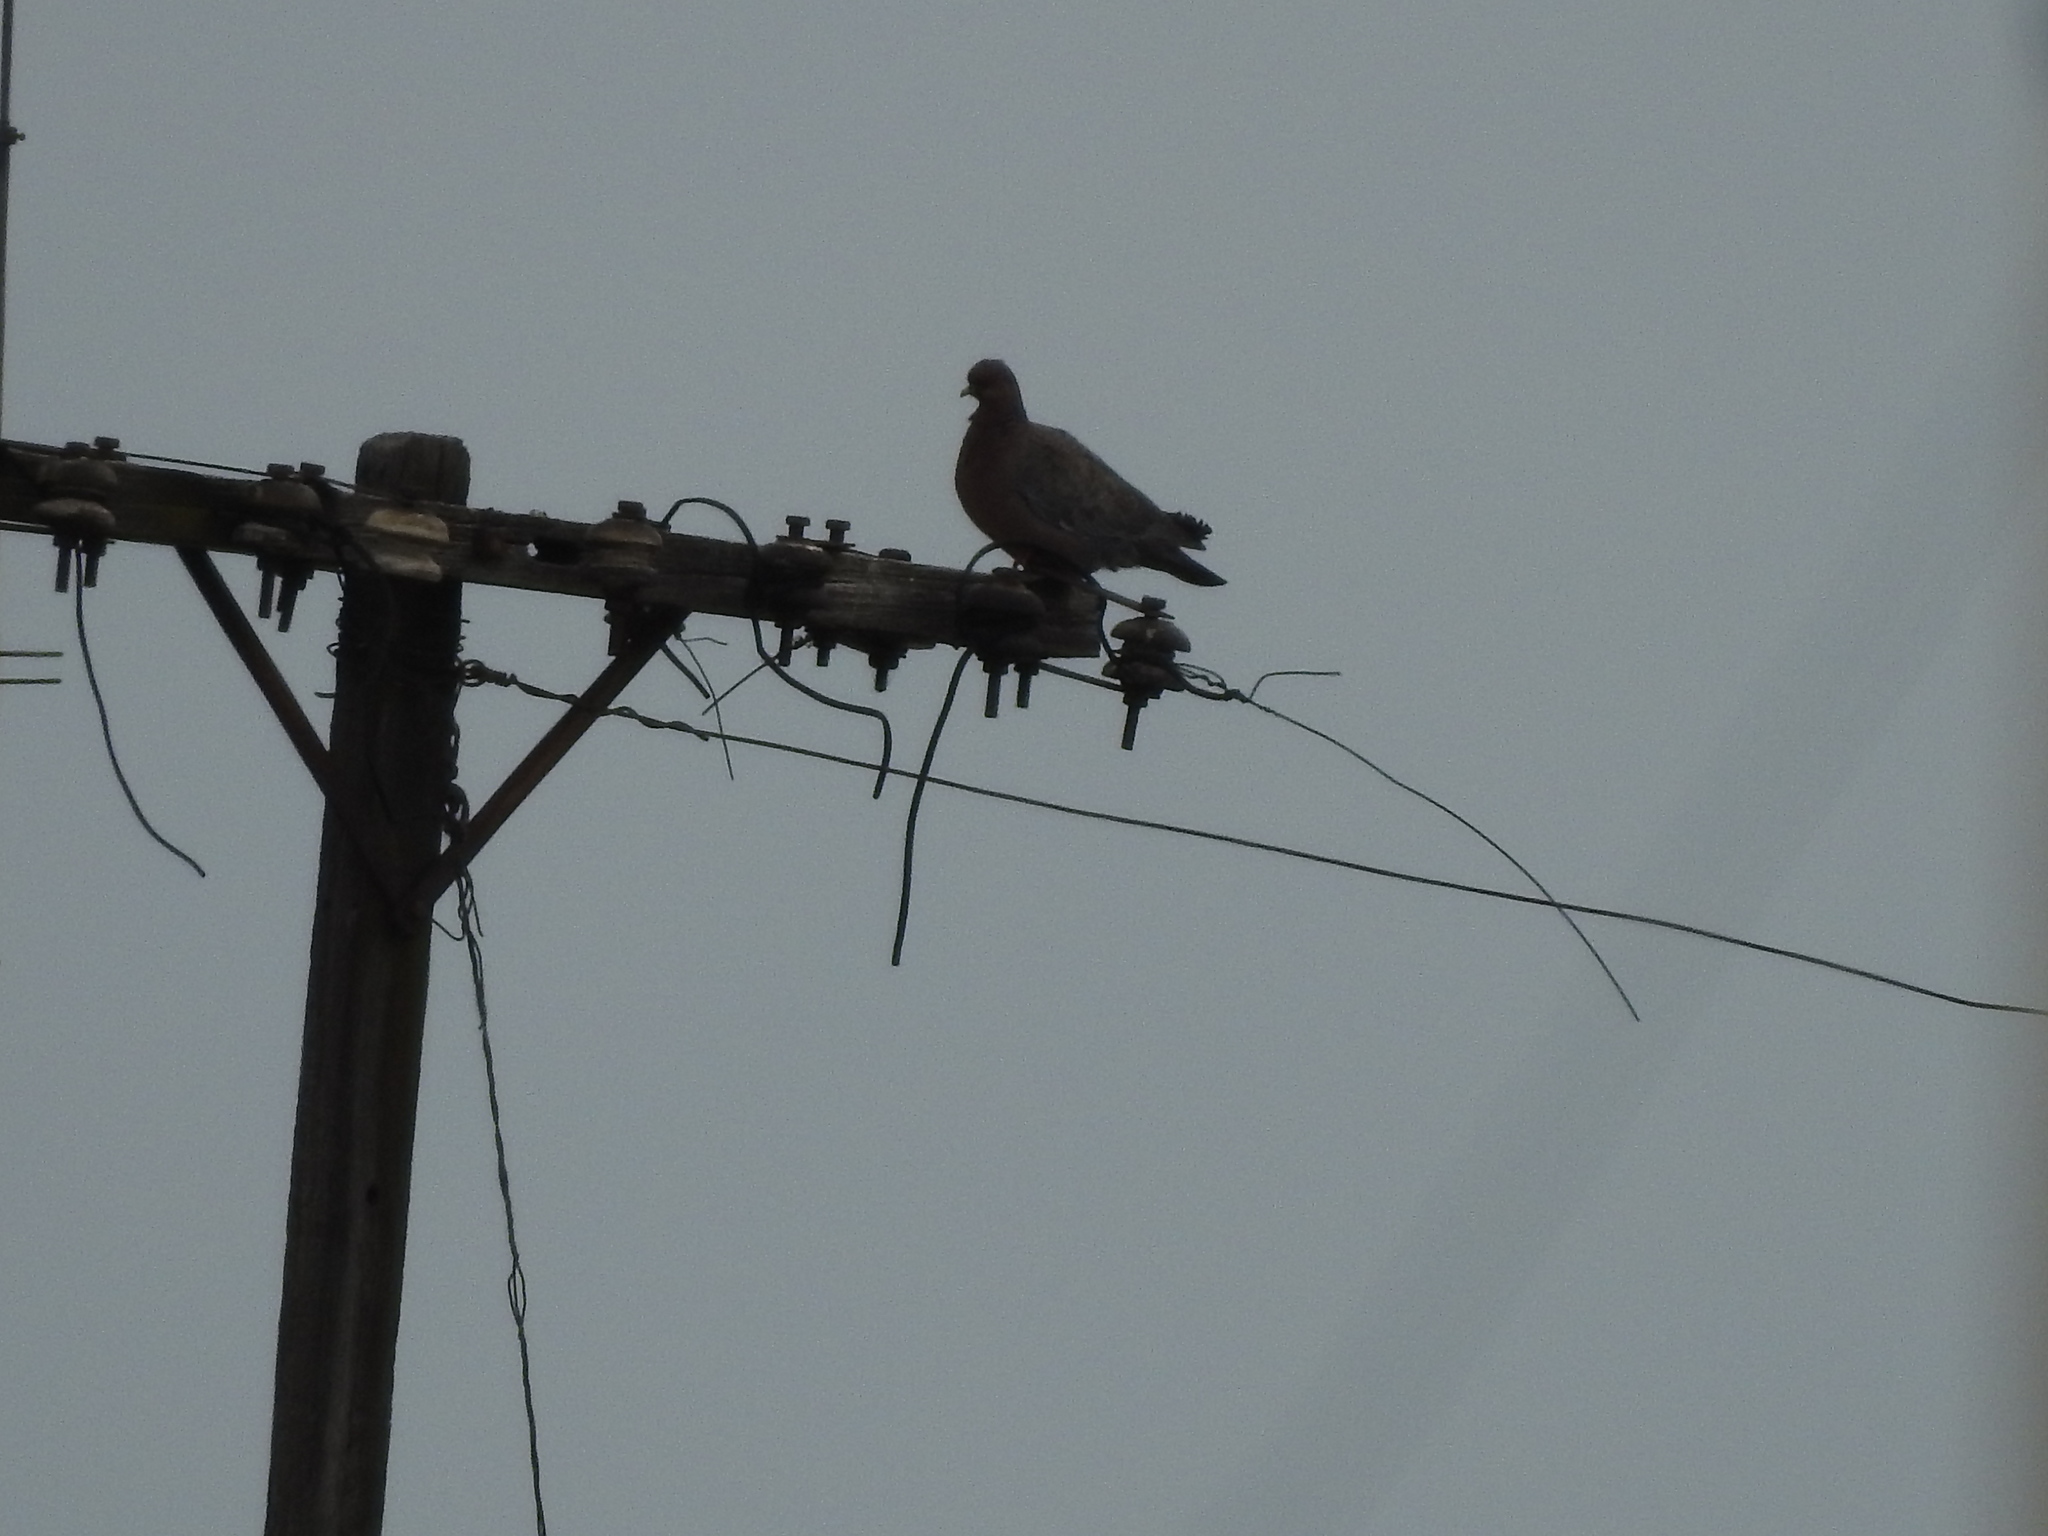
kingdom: Animalia
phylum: Chordata
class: Aves
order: Columbiformes
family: Columbidae
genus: Patagioenas
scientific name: Patagioenas picazuro
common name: Picazuro pigeon
